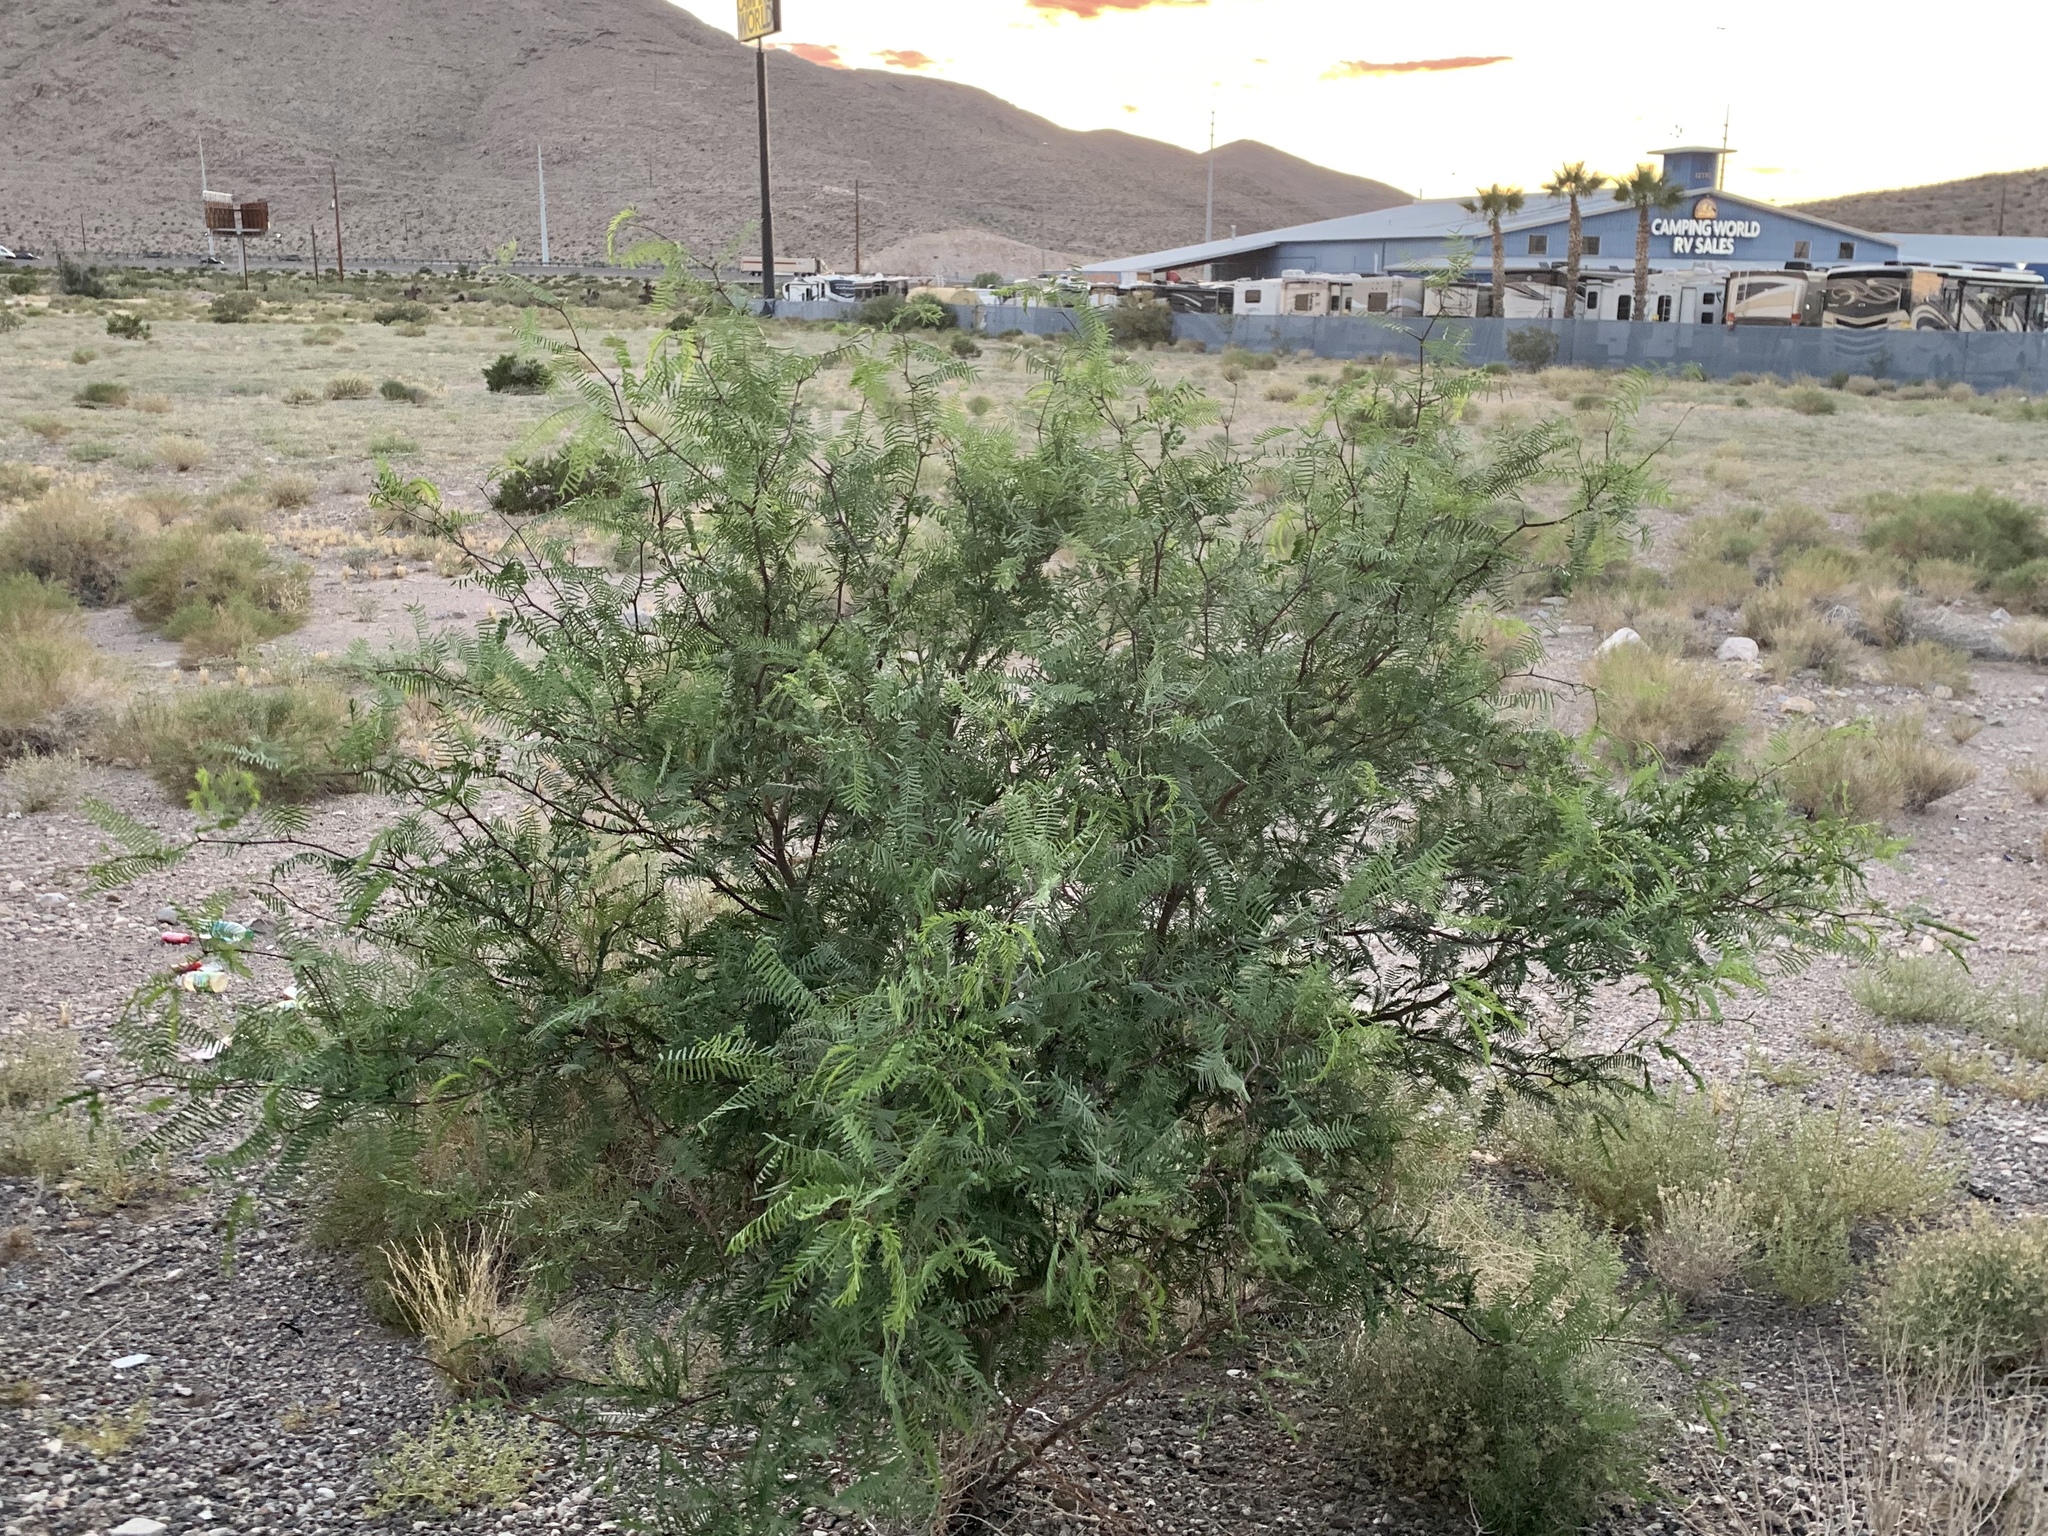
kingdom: Plantae
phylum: Tracheophyta
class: Magnoliopsida
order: Fabales
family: Fabaceae
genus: Prosopis
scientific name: Prosopis pubescens
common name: Screw-bean
